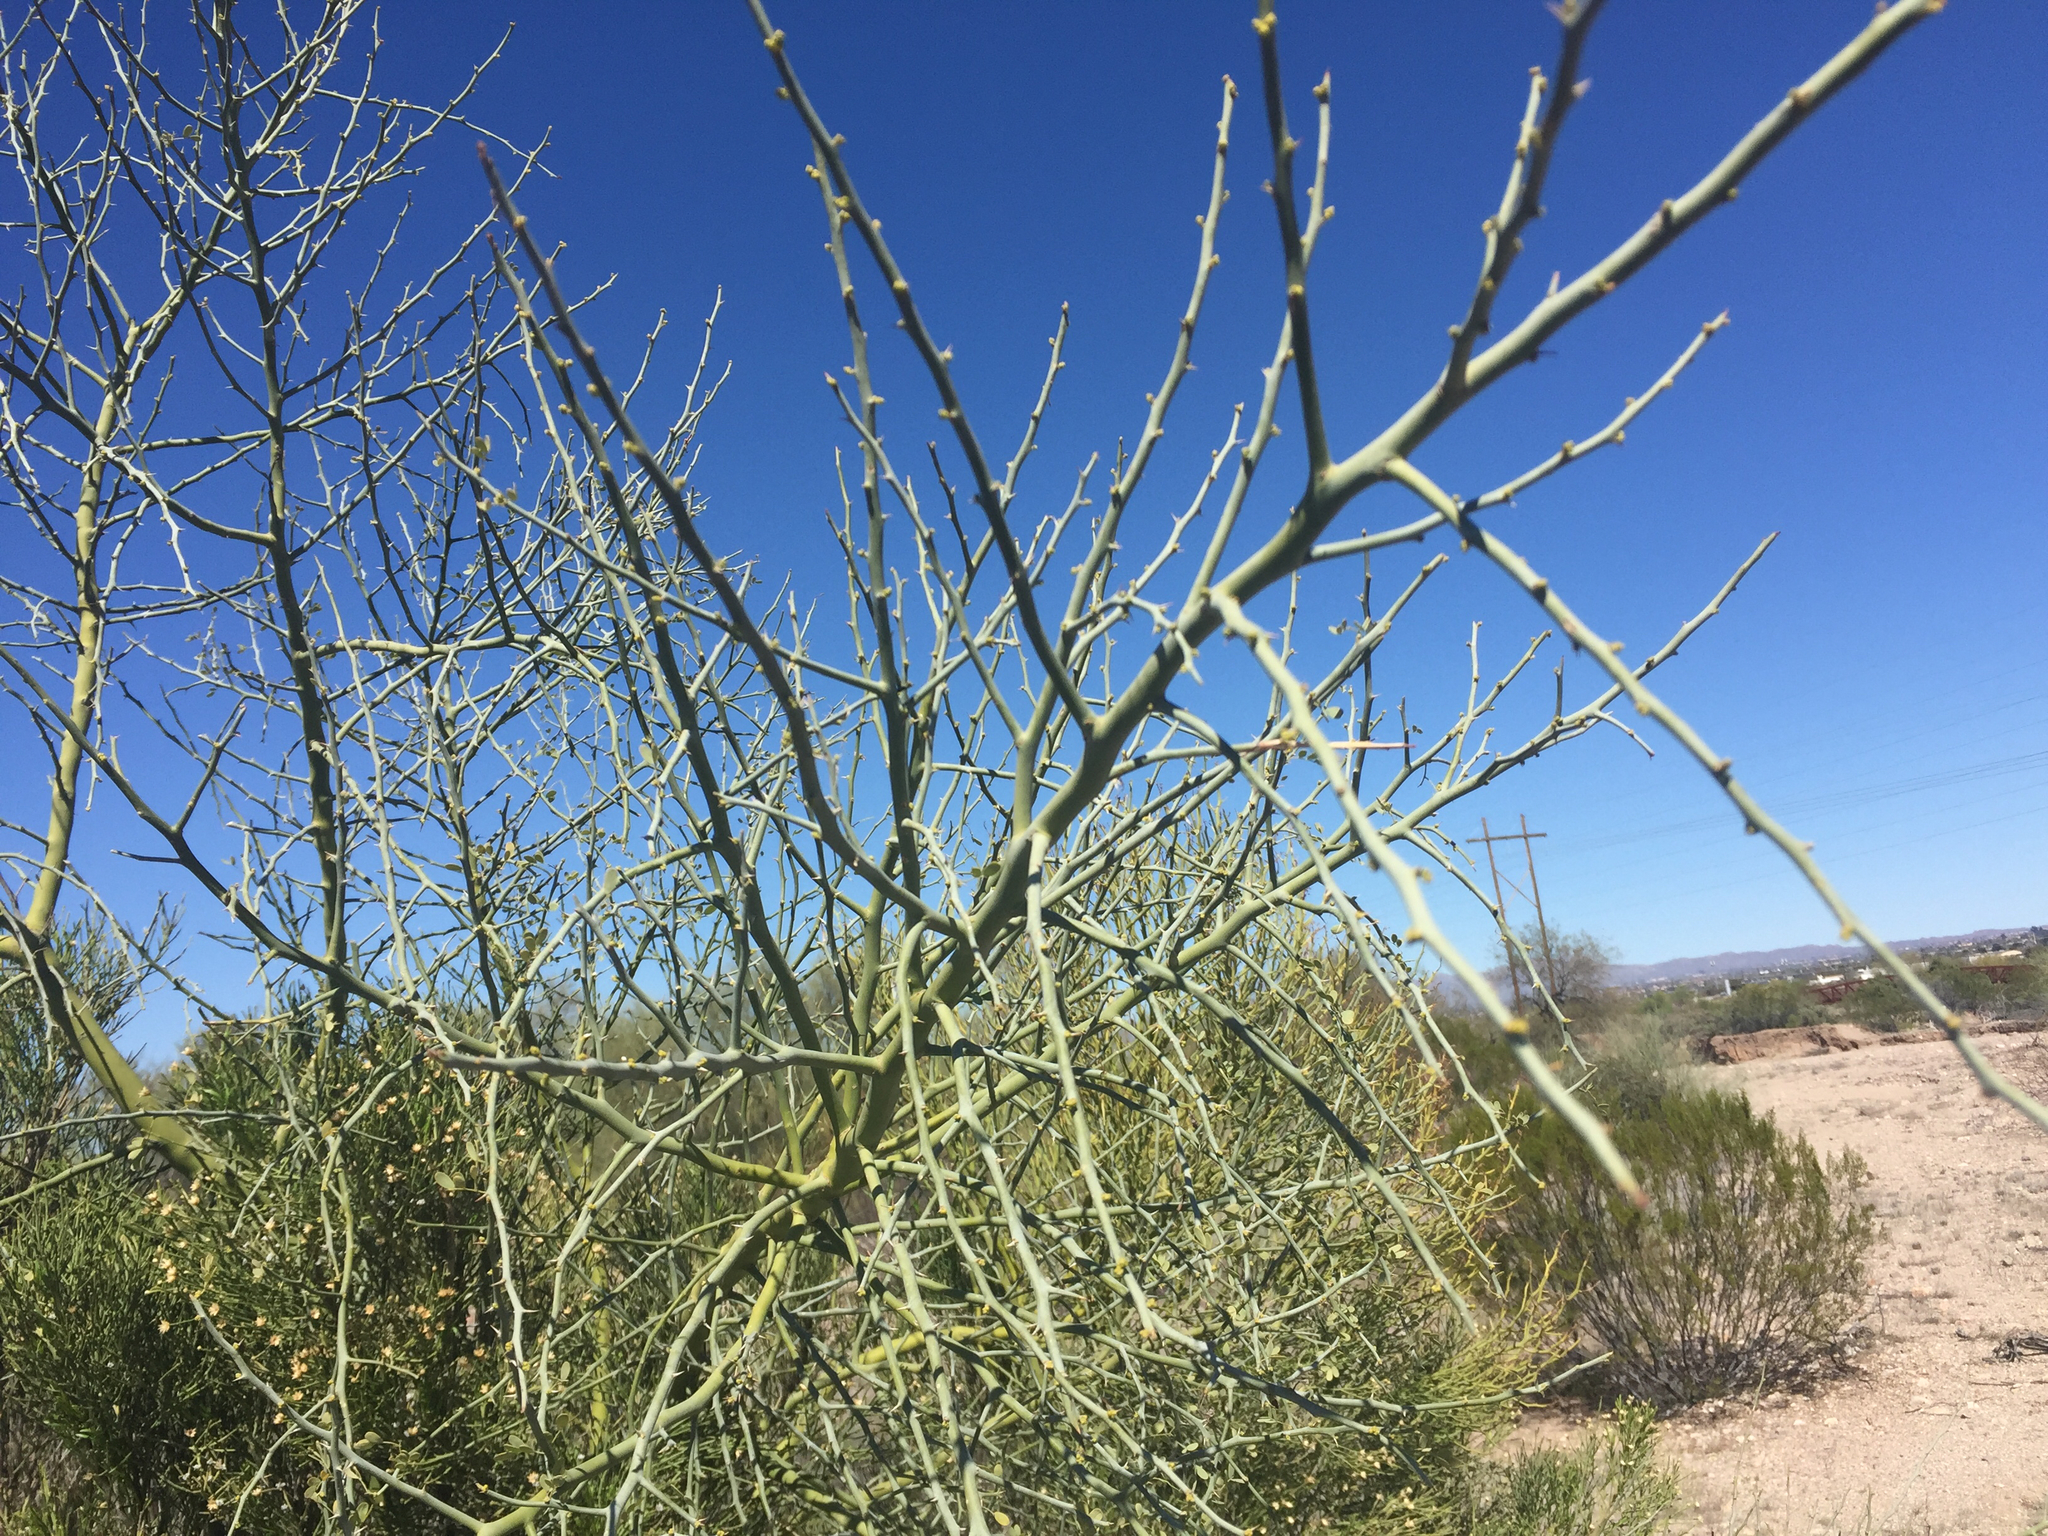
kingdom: Plantae
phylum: Tracheophyta
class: Magnoliopsida
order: Fabales
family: Fabaceae
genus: Parkinsonia
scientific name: Parkinsonia florida
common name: Blue paloverde
